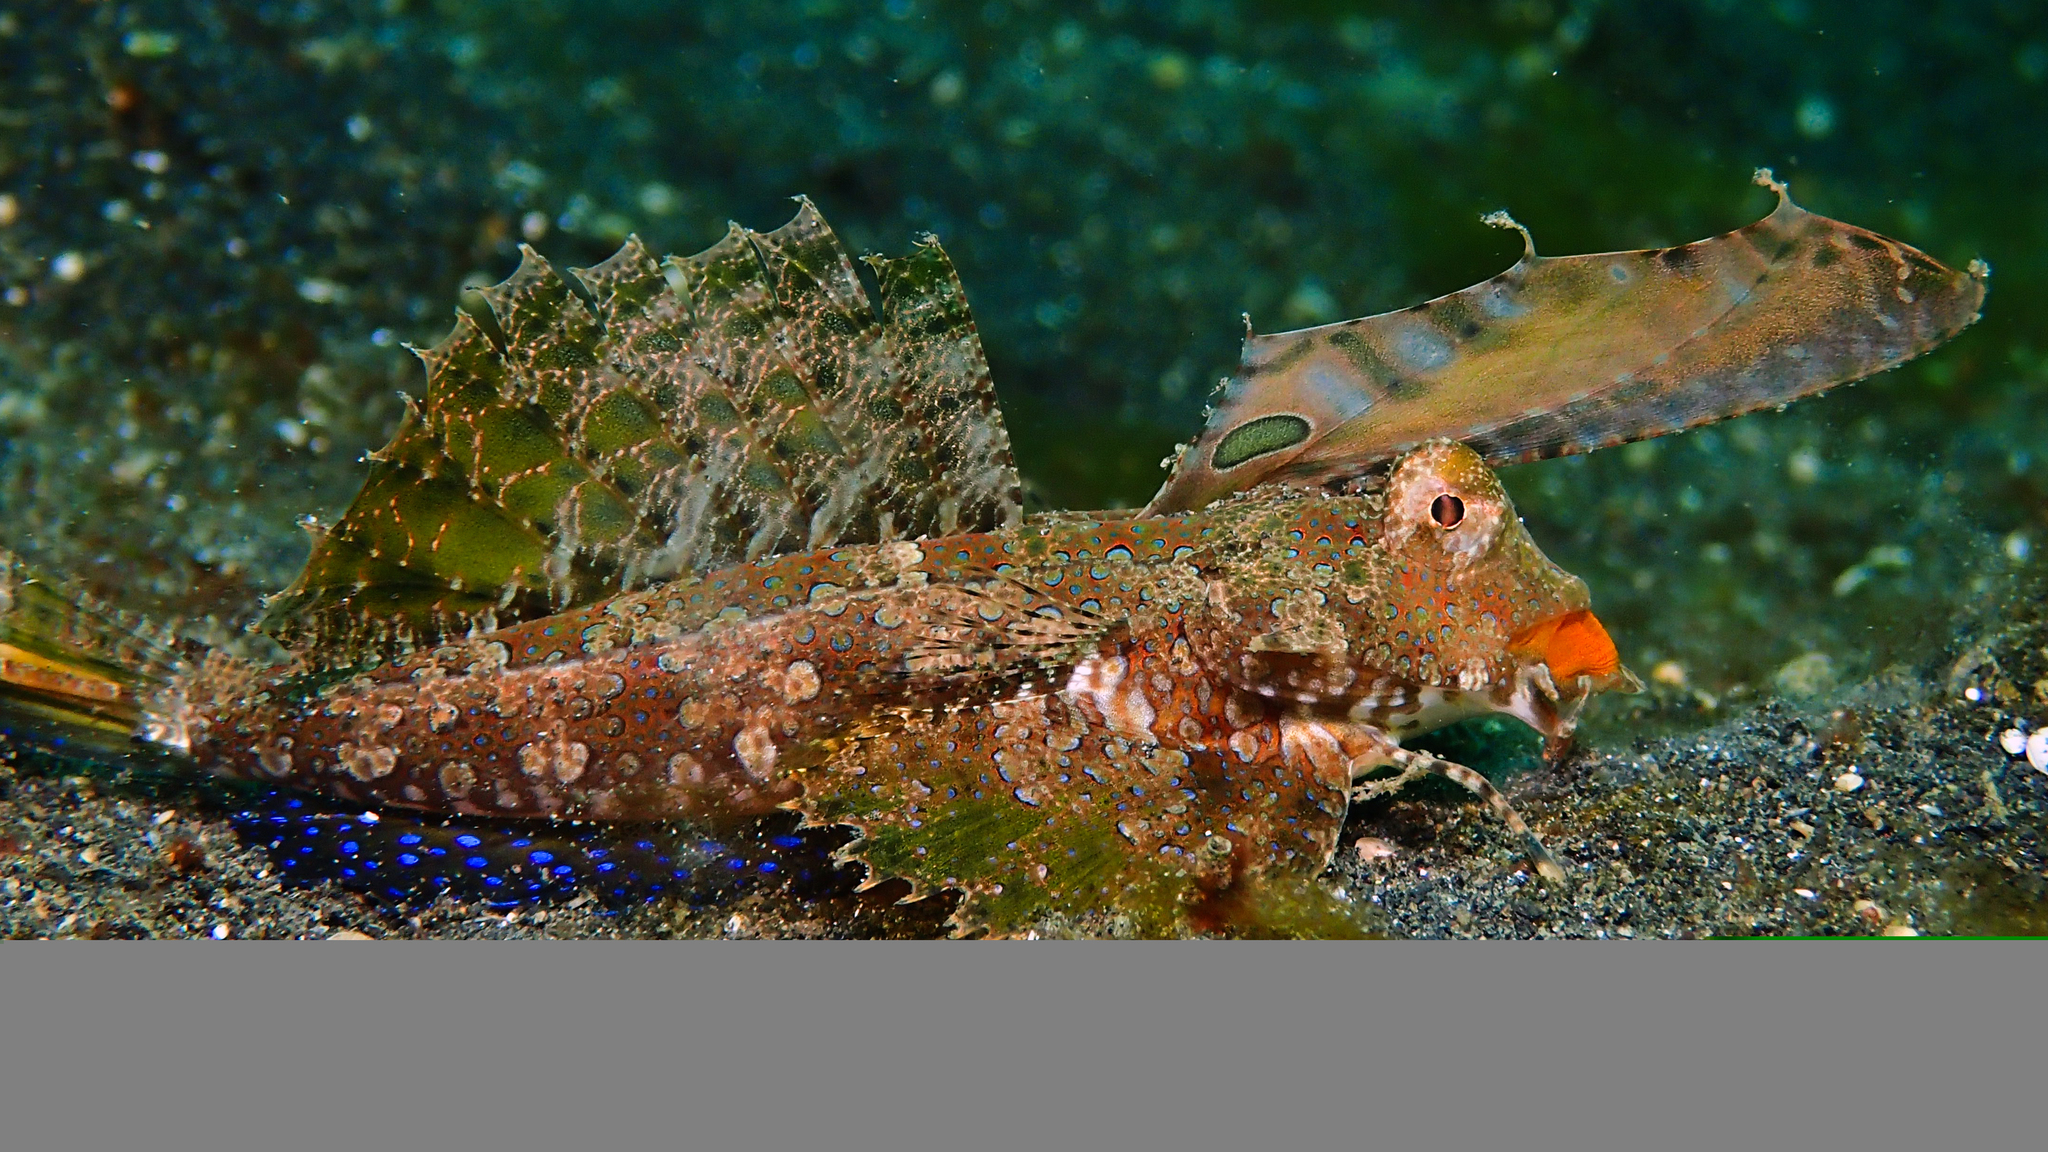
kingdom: Animalia
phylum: Chordata
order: Perciformes
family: Callionymidae
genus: Dactylopus
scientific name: Dactylopus kuiteri
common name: Kuiter's dragonet
